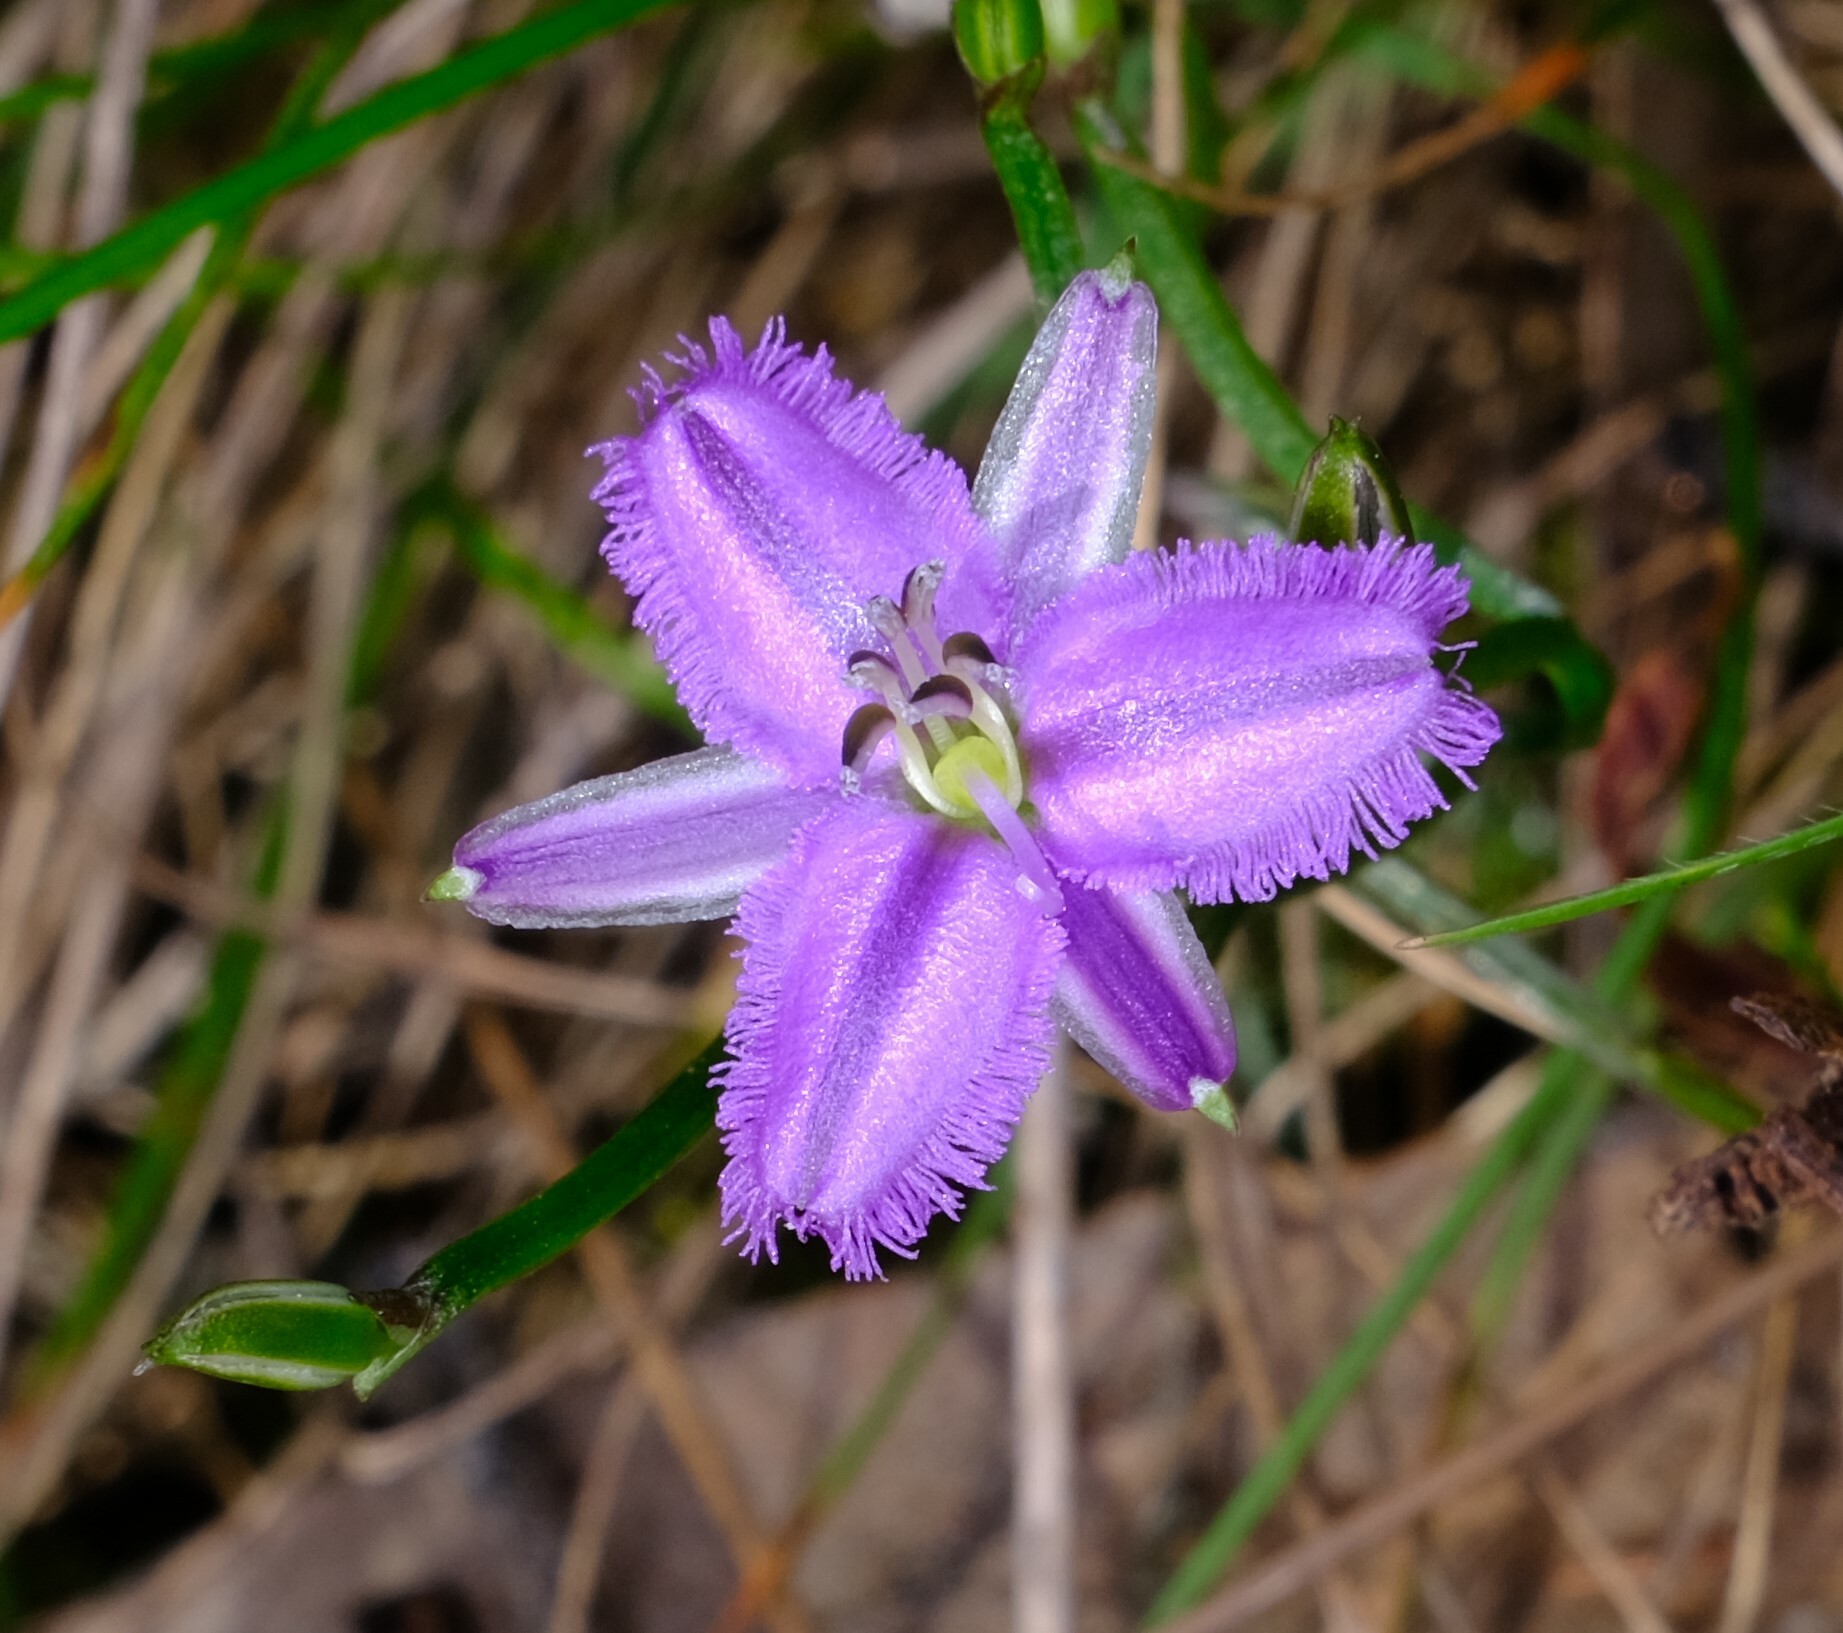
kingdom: Plantae
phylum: Tracheophyta
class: Liliopsida
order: Asparagales
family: Asparagaceae
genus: Thysanotus
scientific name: Thysanotus patersonii
